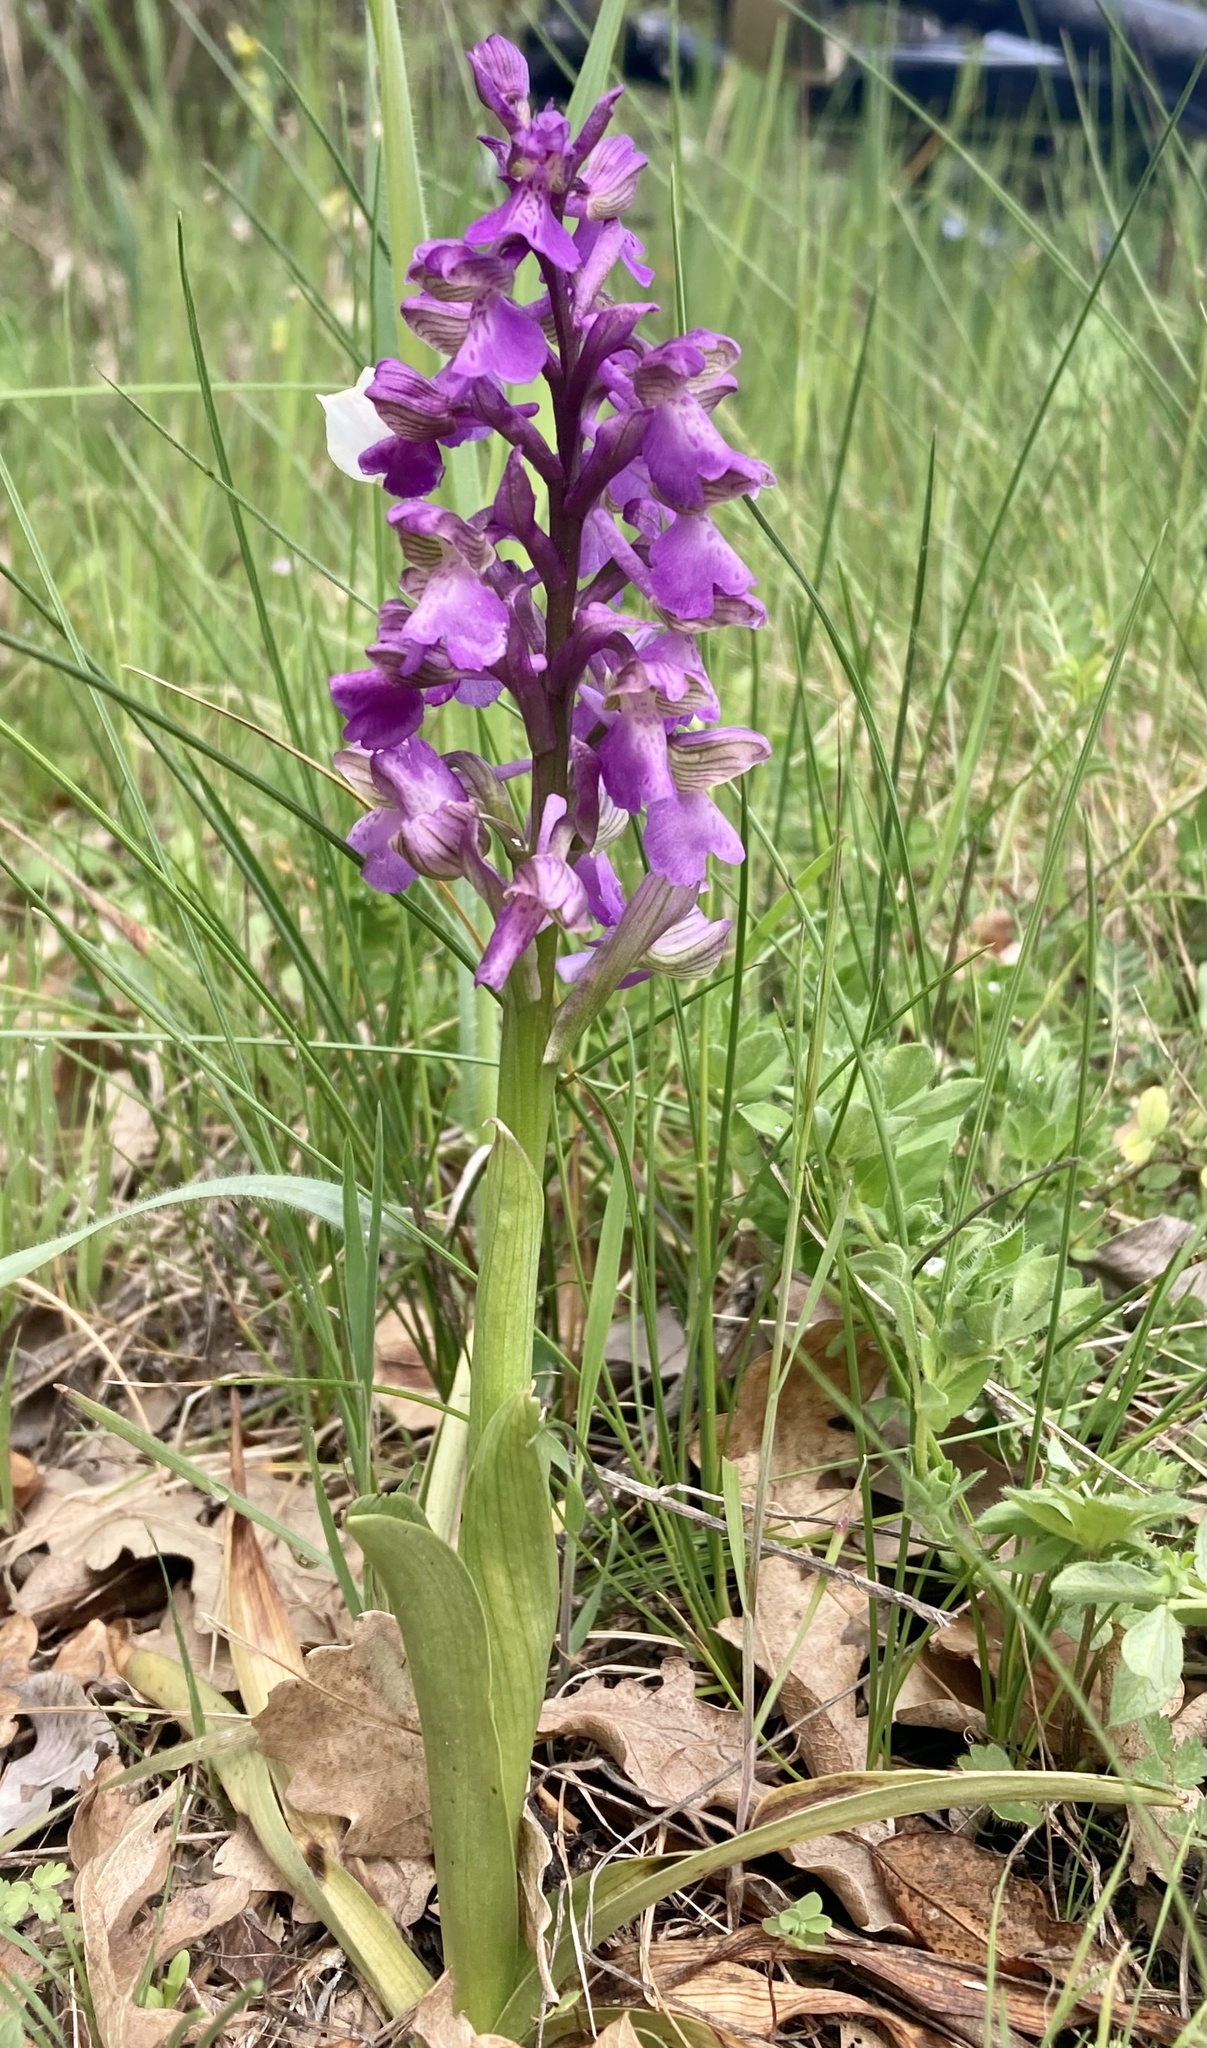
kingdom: Plantae
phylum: Tracheophyta
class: Liliopsida
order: Asparagales
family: Orchidaceae
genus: Anacamptis
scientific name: Anacamptis morio
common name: Green-winged orchid
